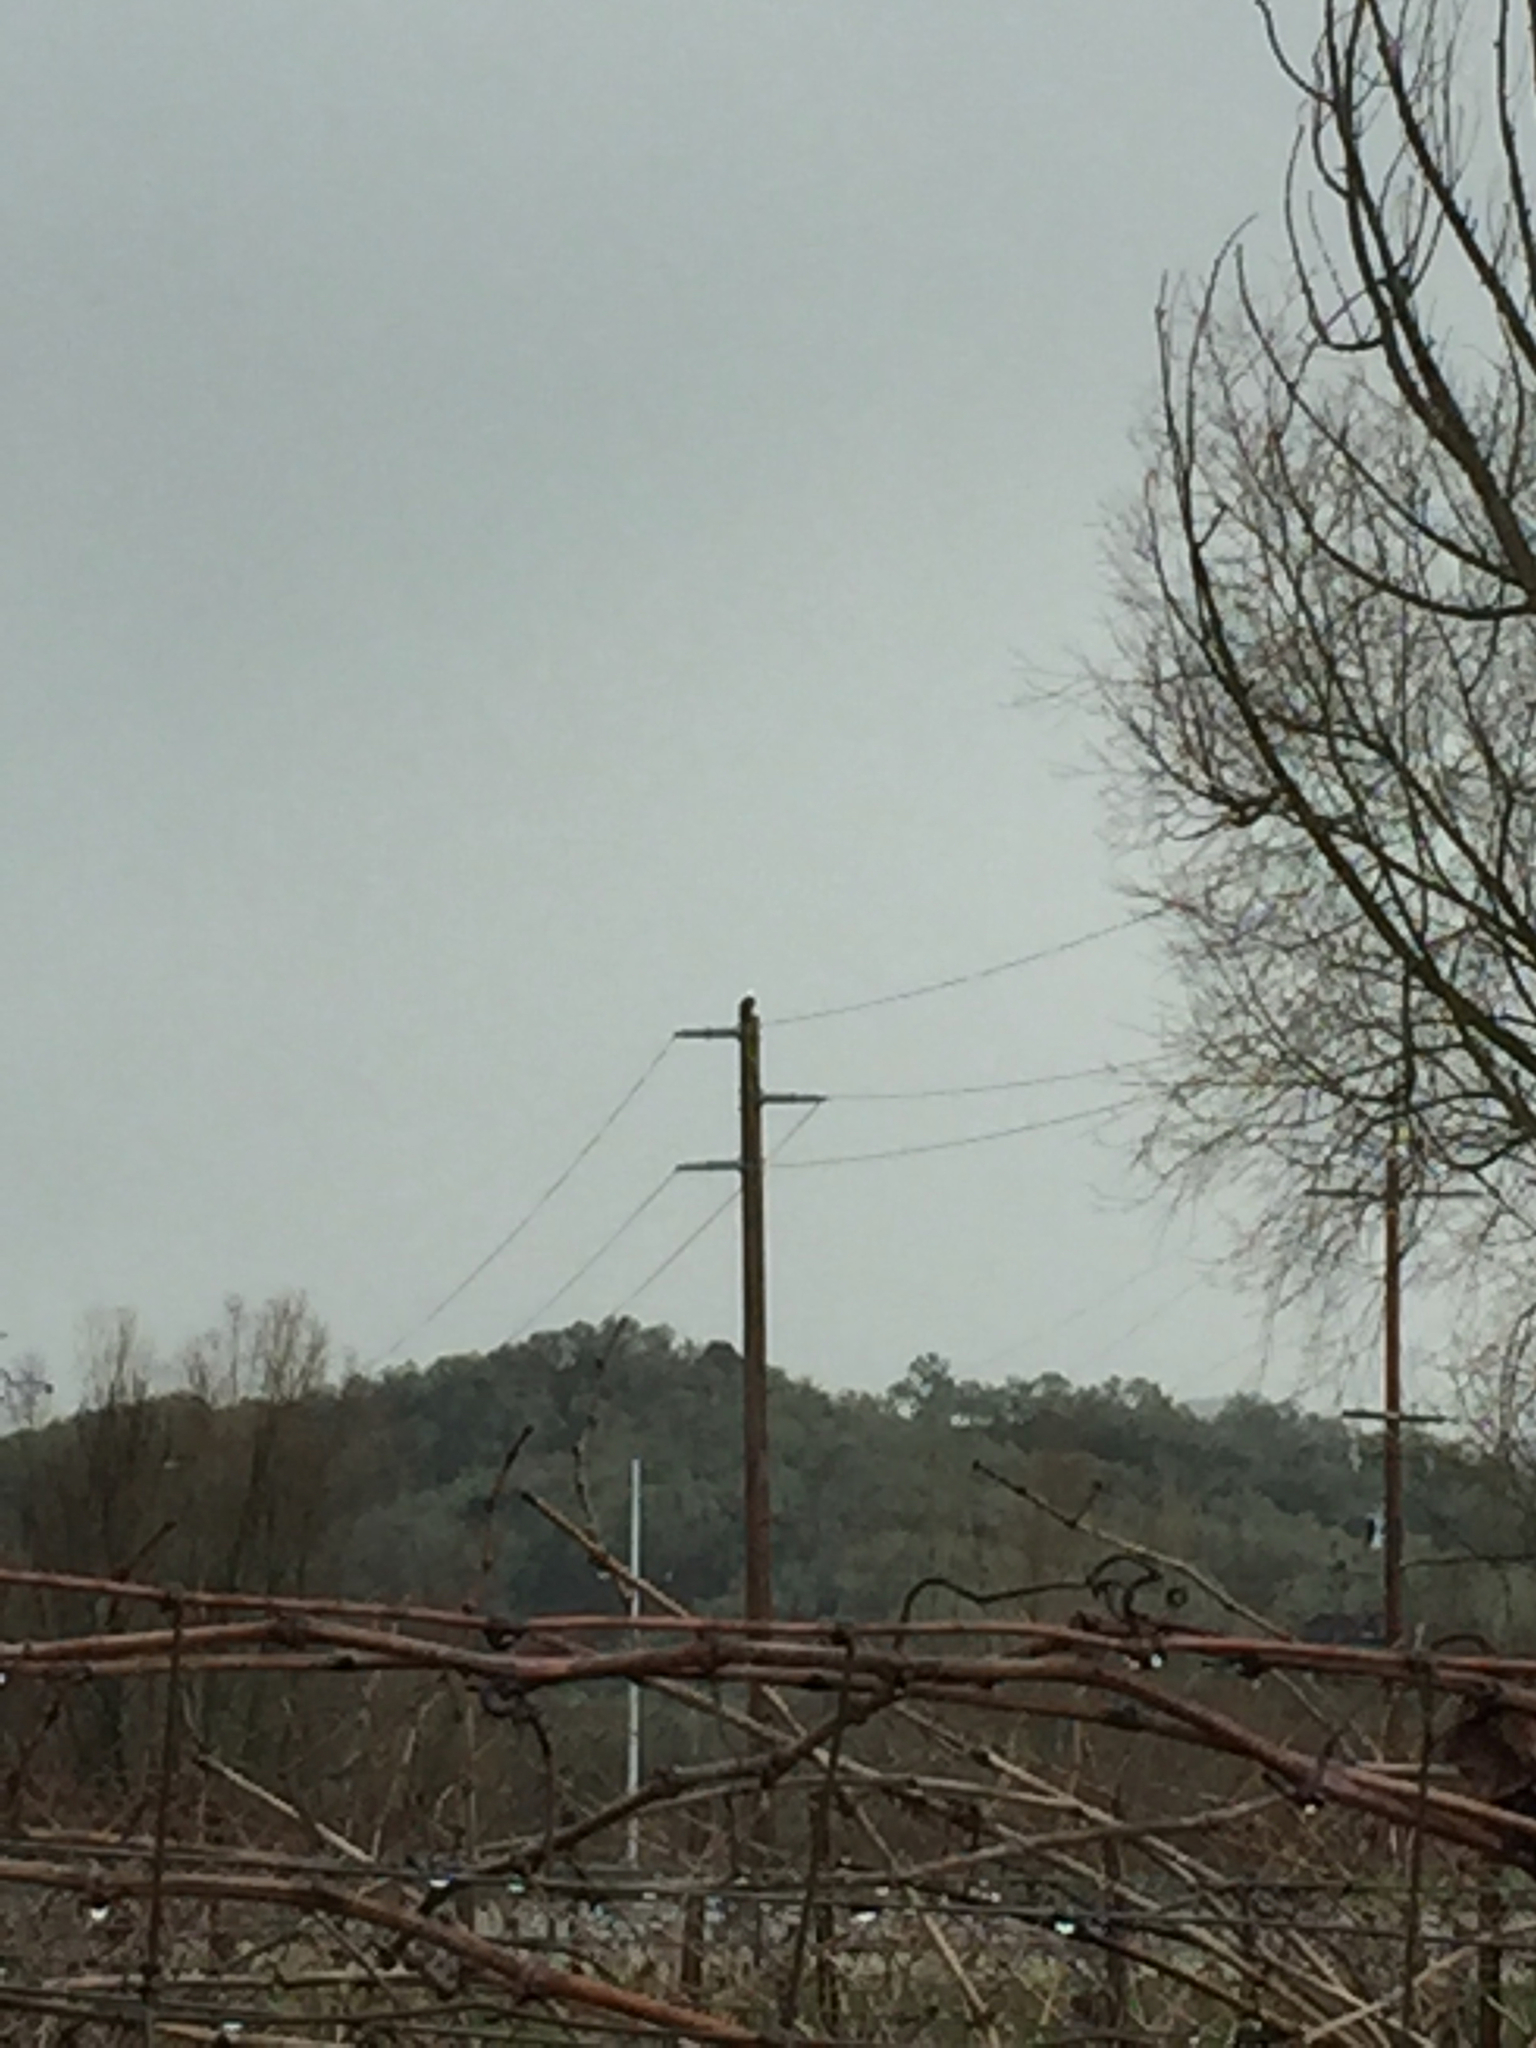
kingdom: Animalia
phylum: Chordata
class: Aves
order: Accipitriformes
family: Accipitridae
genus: Haliaeetus
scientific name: Haliaeetus leucocephalus
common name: Bald eagle
